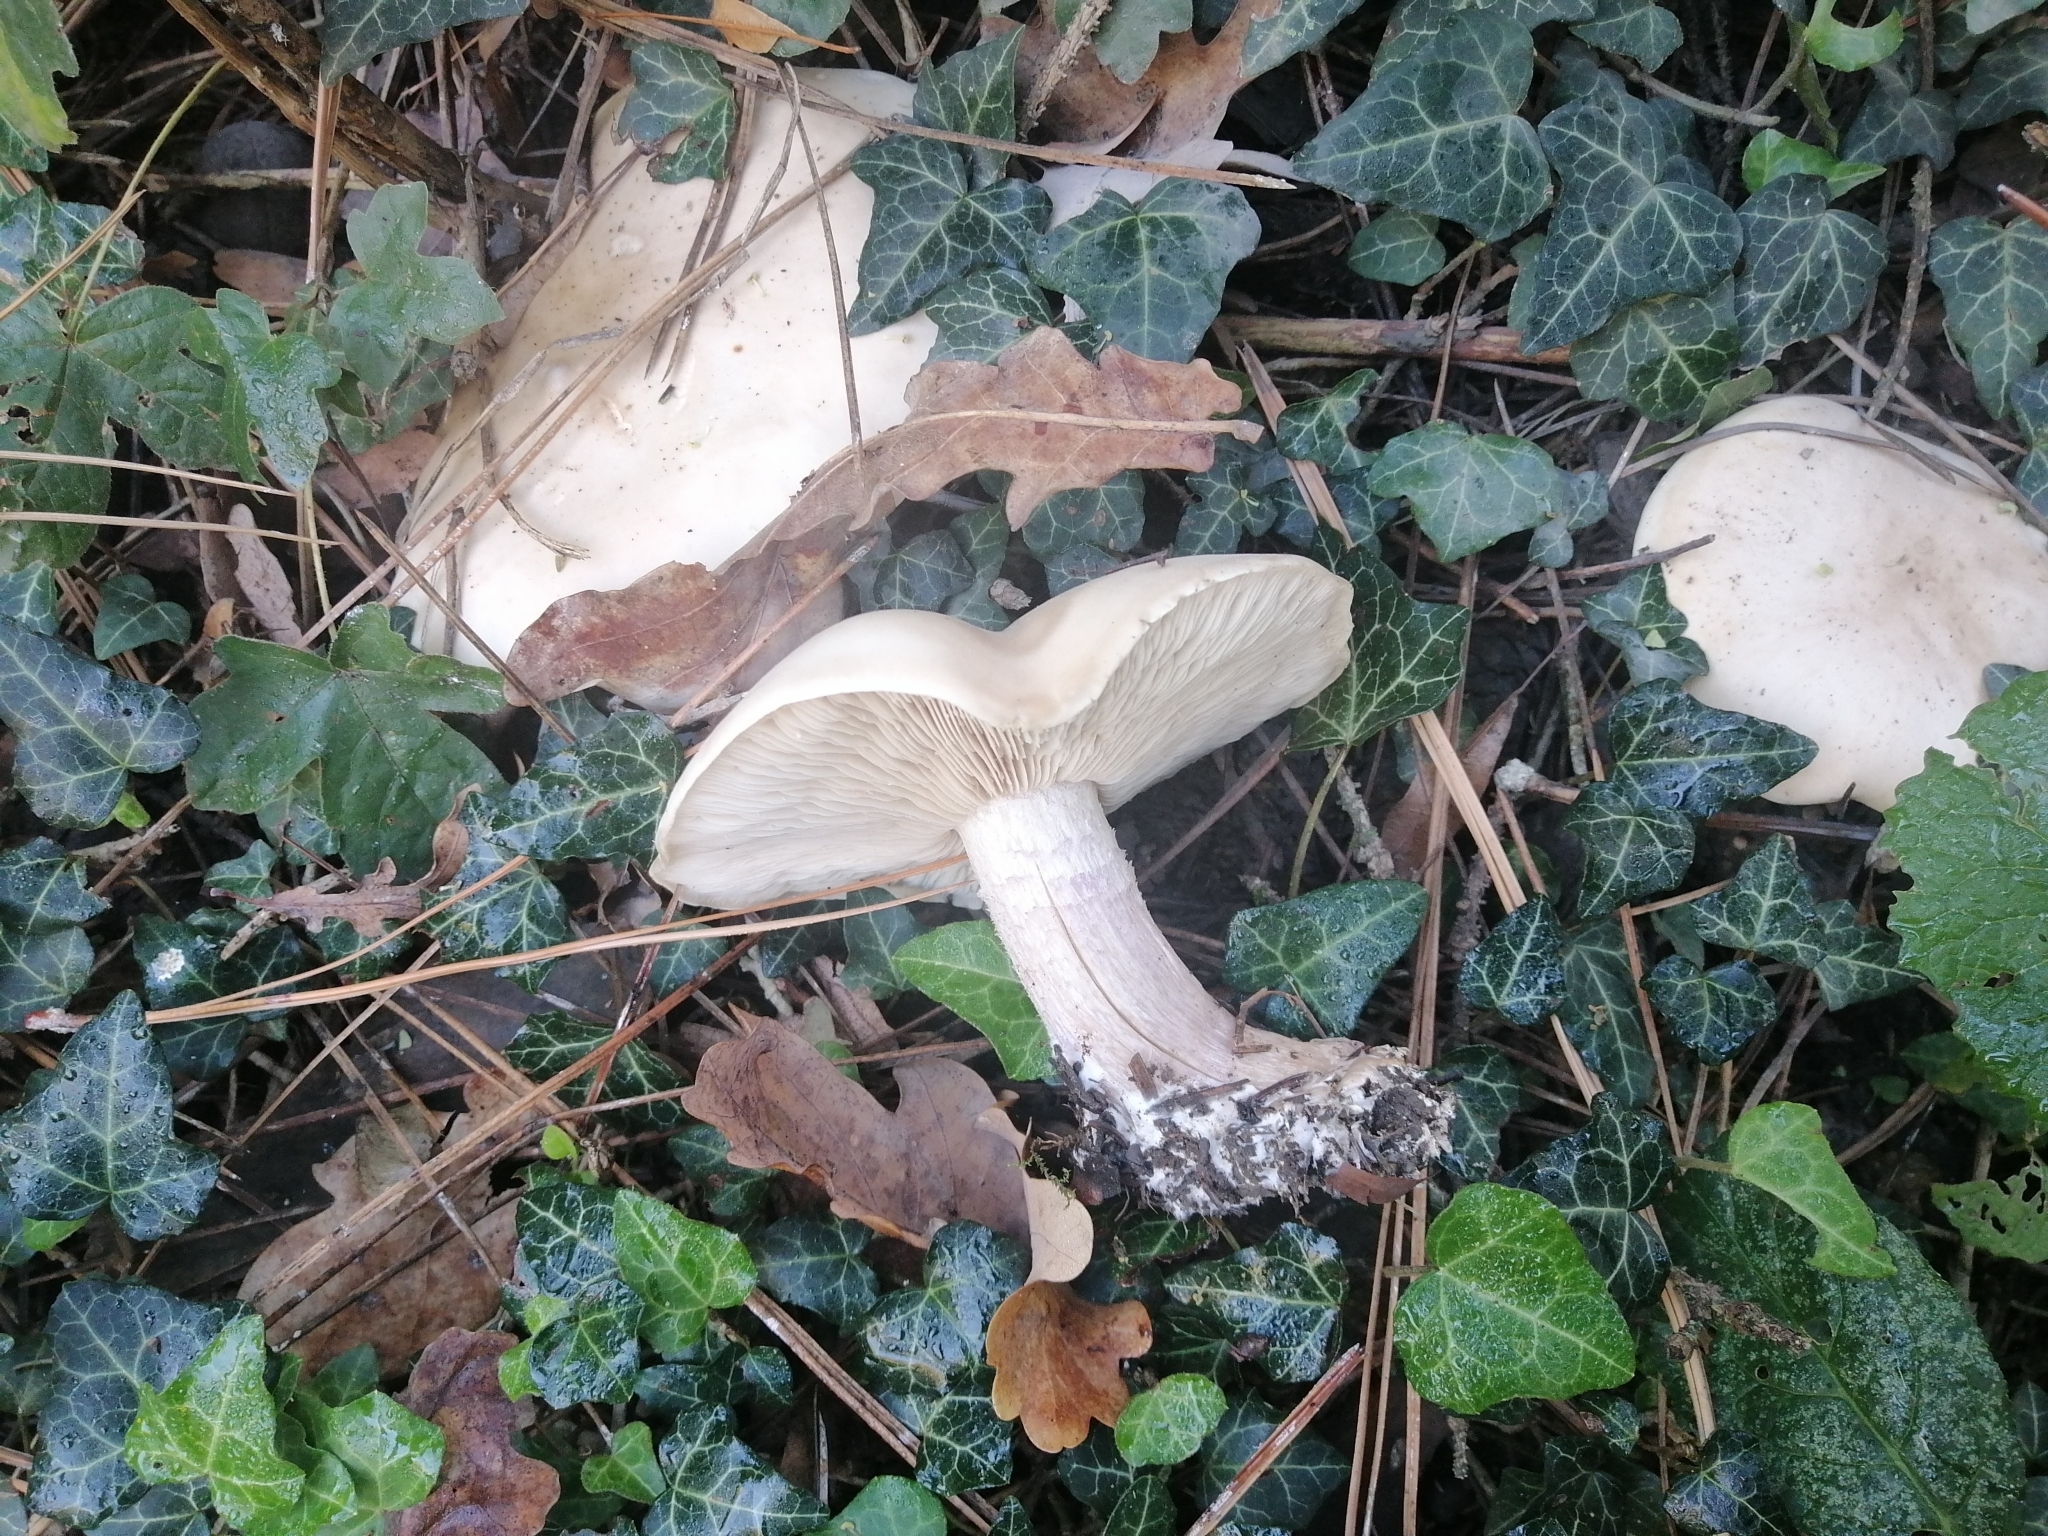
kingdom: Fungi
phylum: Basidiomycota
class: Agaricomycetes
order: Agaricales
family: Omphalotaceae
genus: Collybiopsis
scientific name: Collybiopsis peronata
